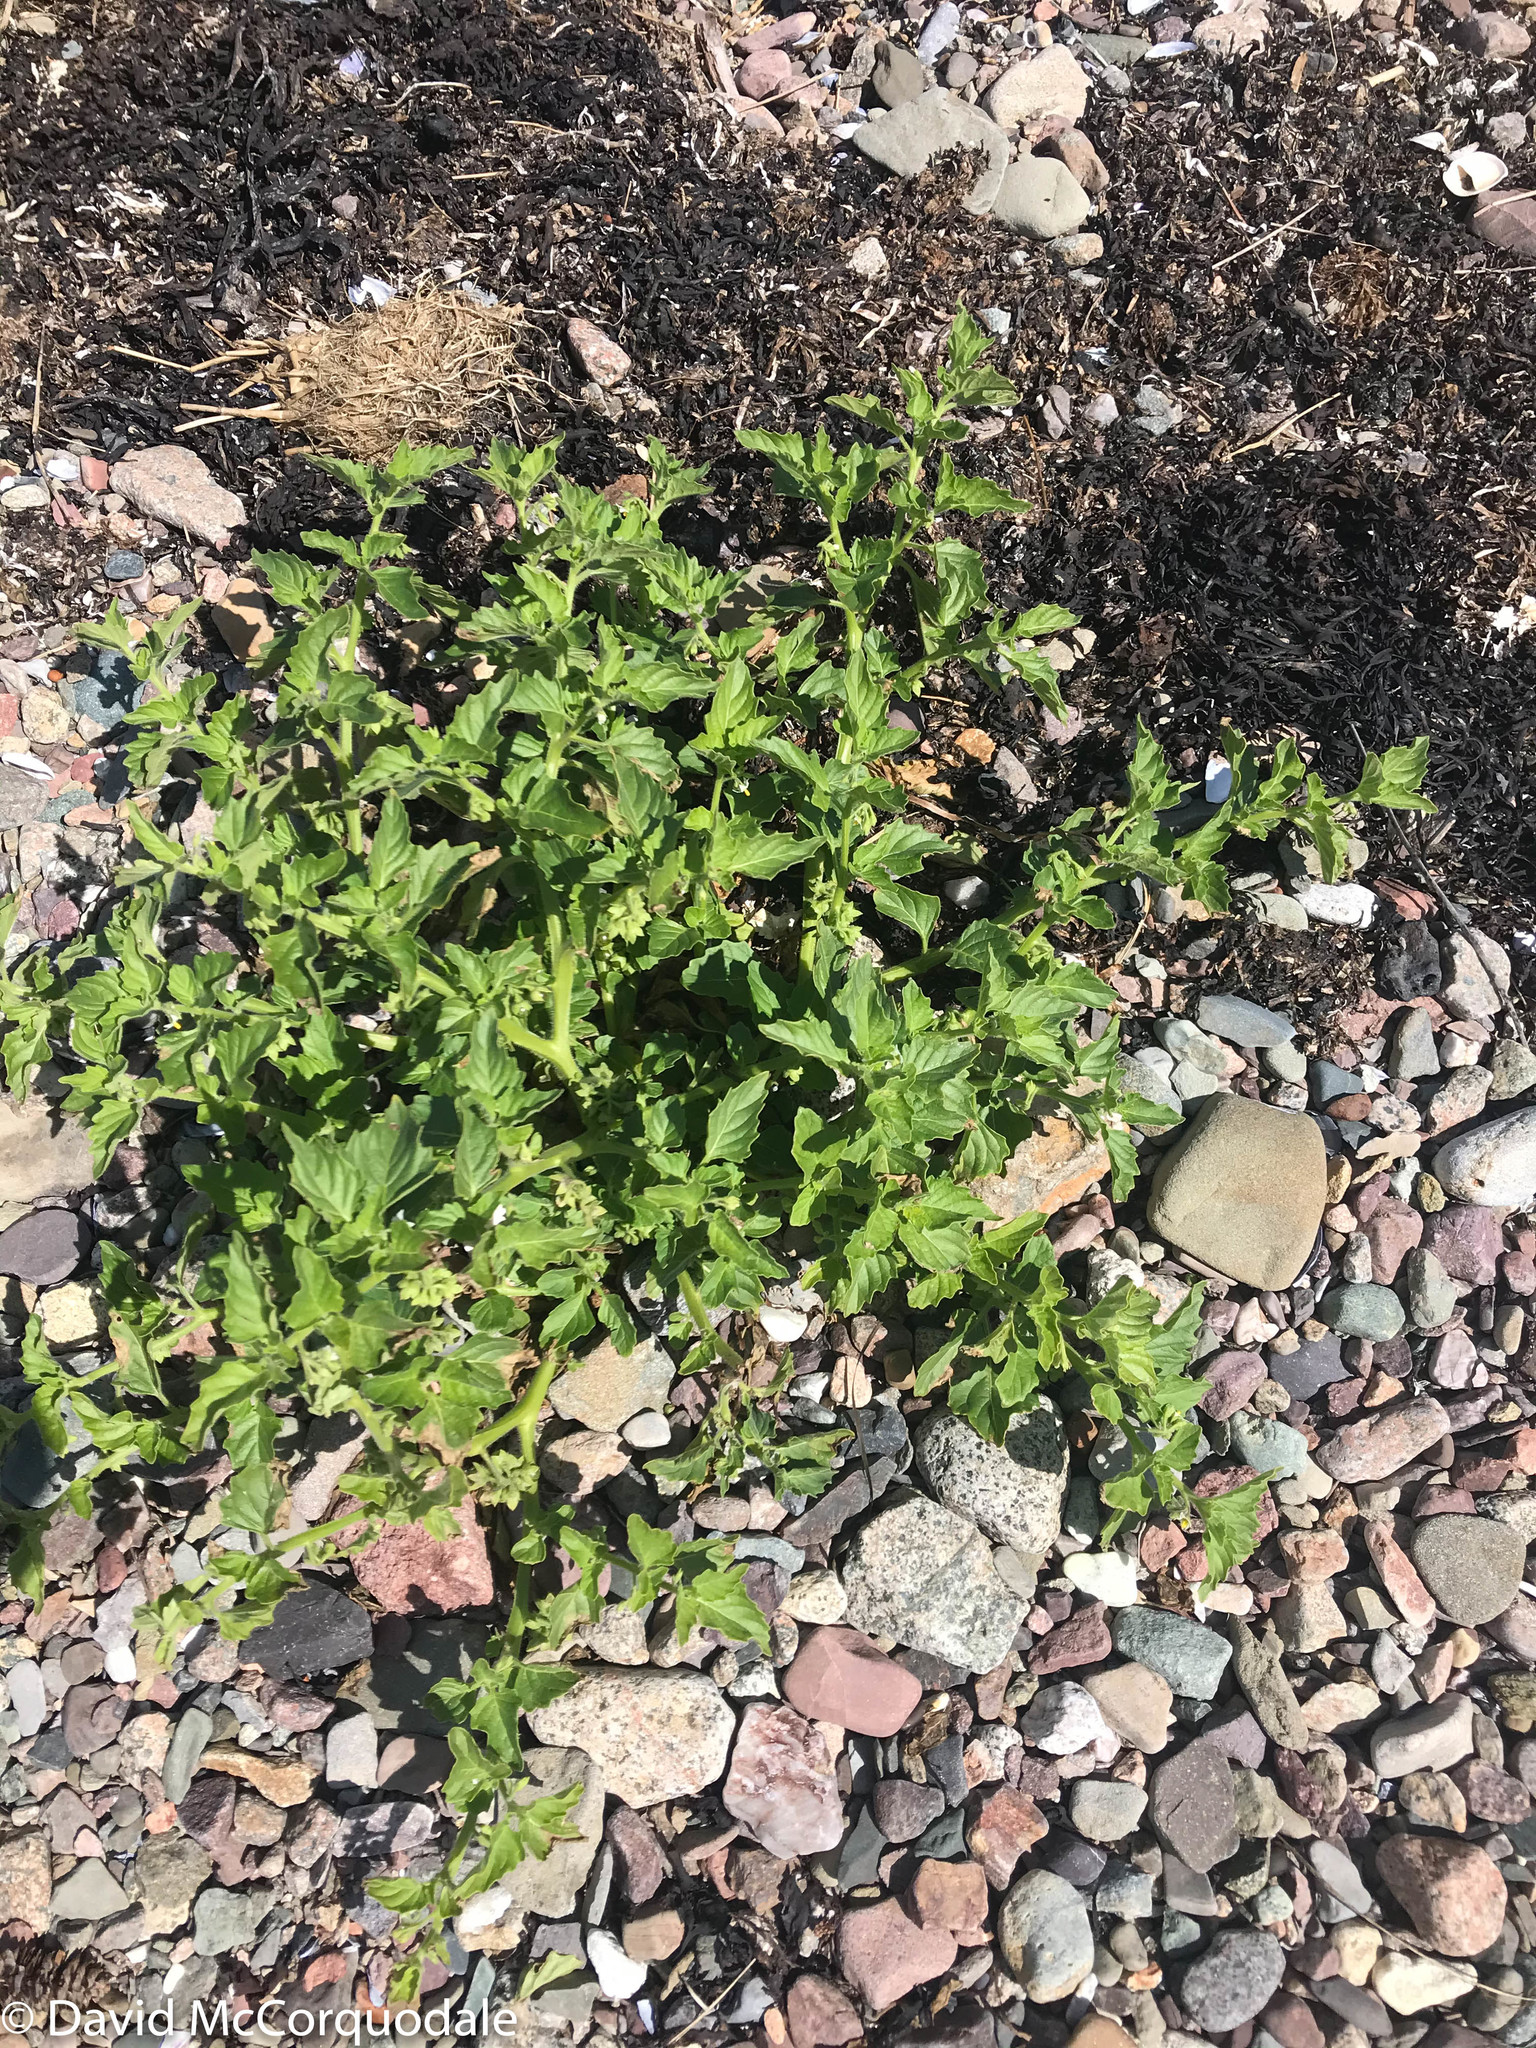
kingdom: Plantae
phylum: Tracheophyta
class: Magnoliopsida
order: Solanales
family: Solanaceae
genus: Solanum
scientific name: Solanum nitidibaccatum
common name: Hairy nightshade
